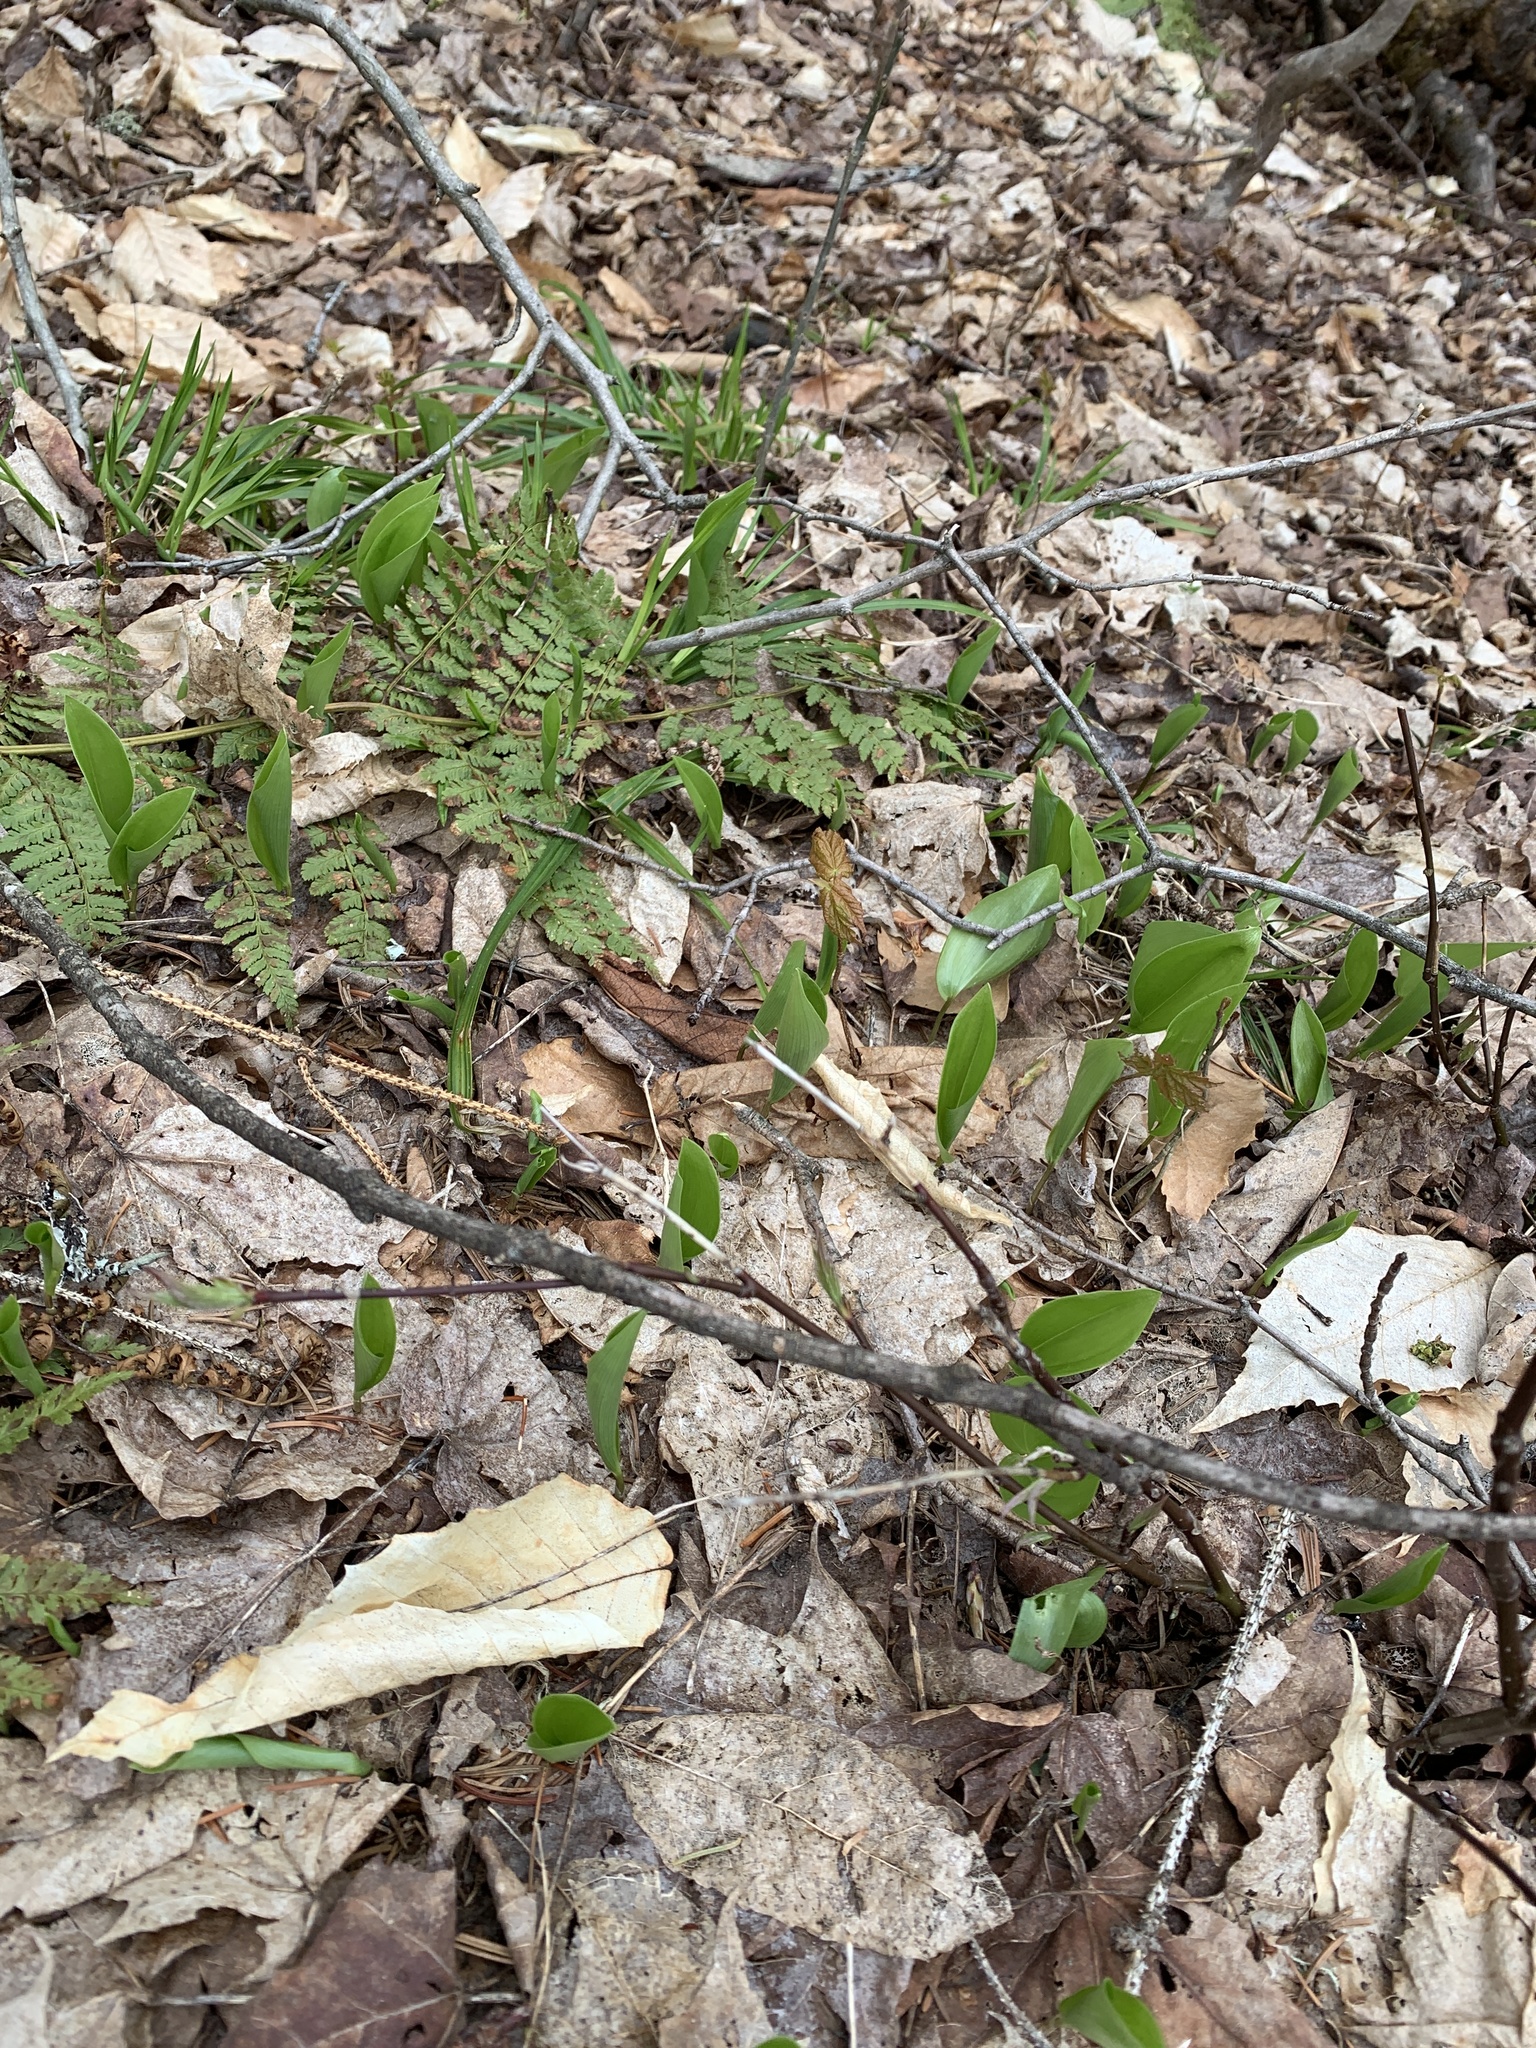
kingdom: Plantae
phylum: Tracheophyta
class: Liliopsida
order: Asparagales
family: Asparagaceae
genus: Maianthemum
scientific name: Maianthemum canadense
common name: False lily-of-the-valley
